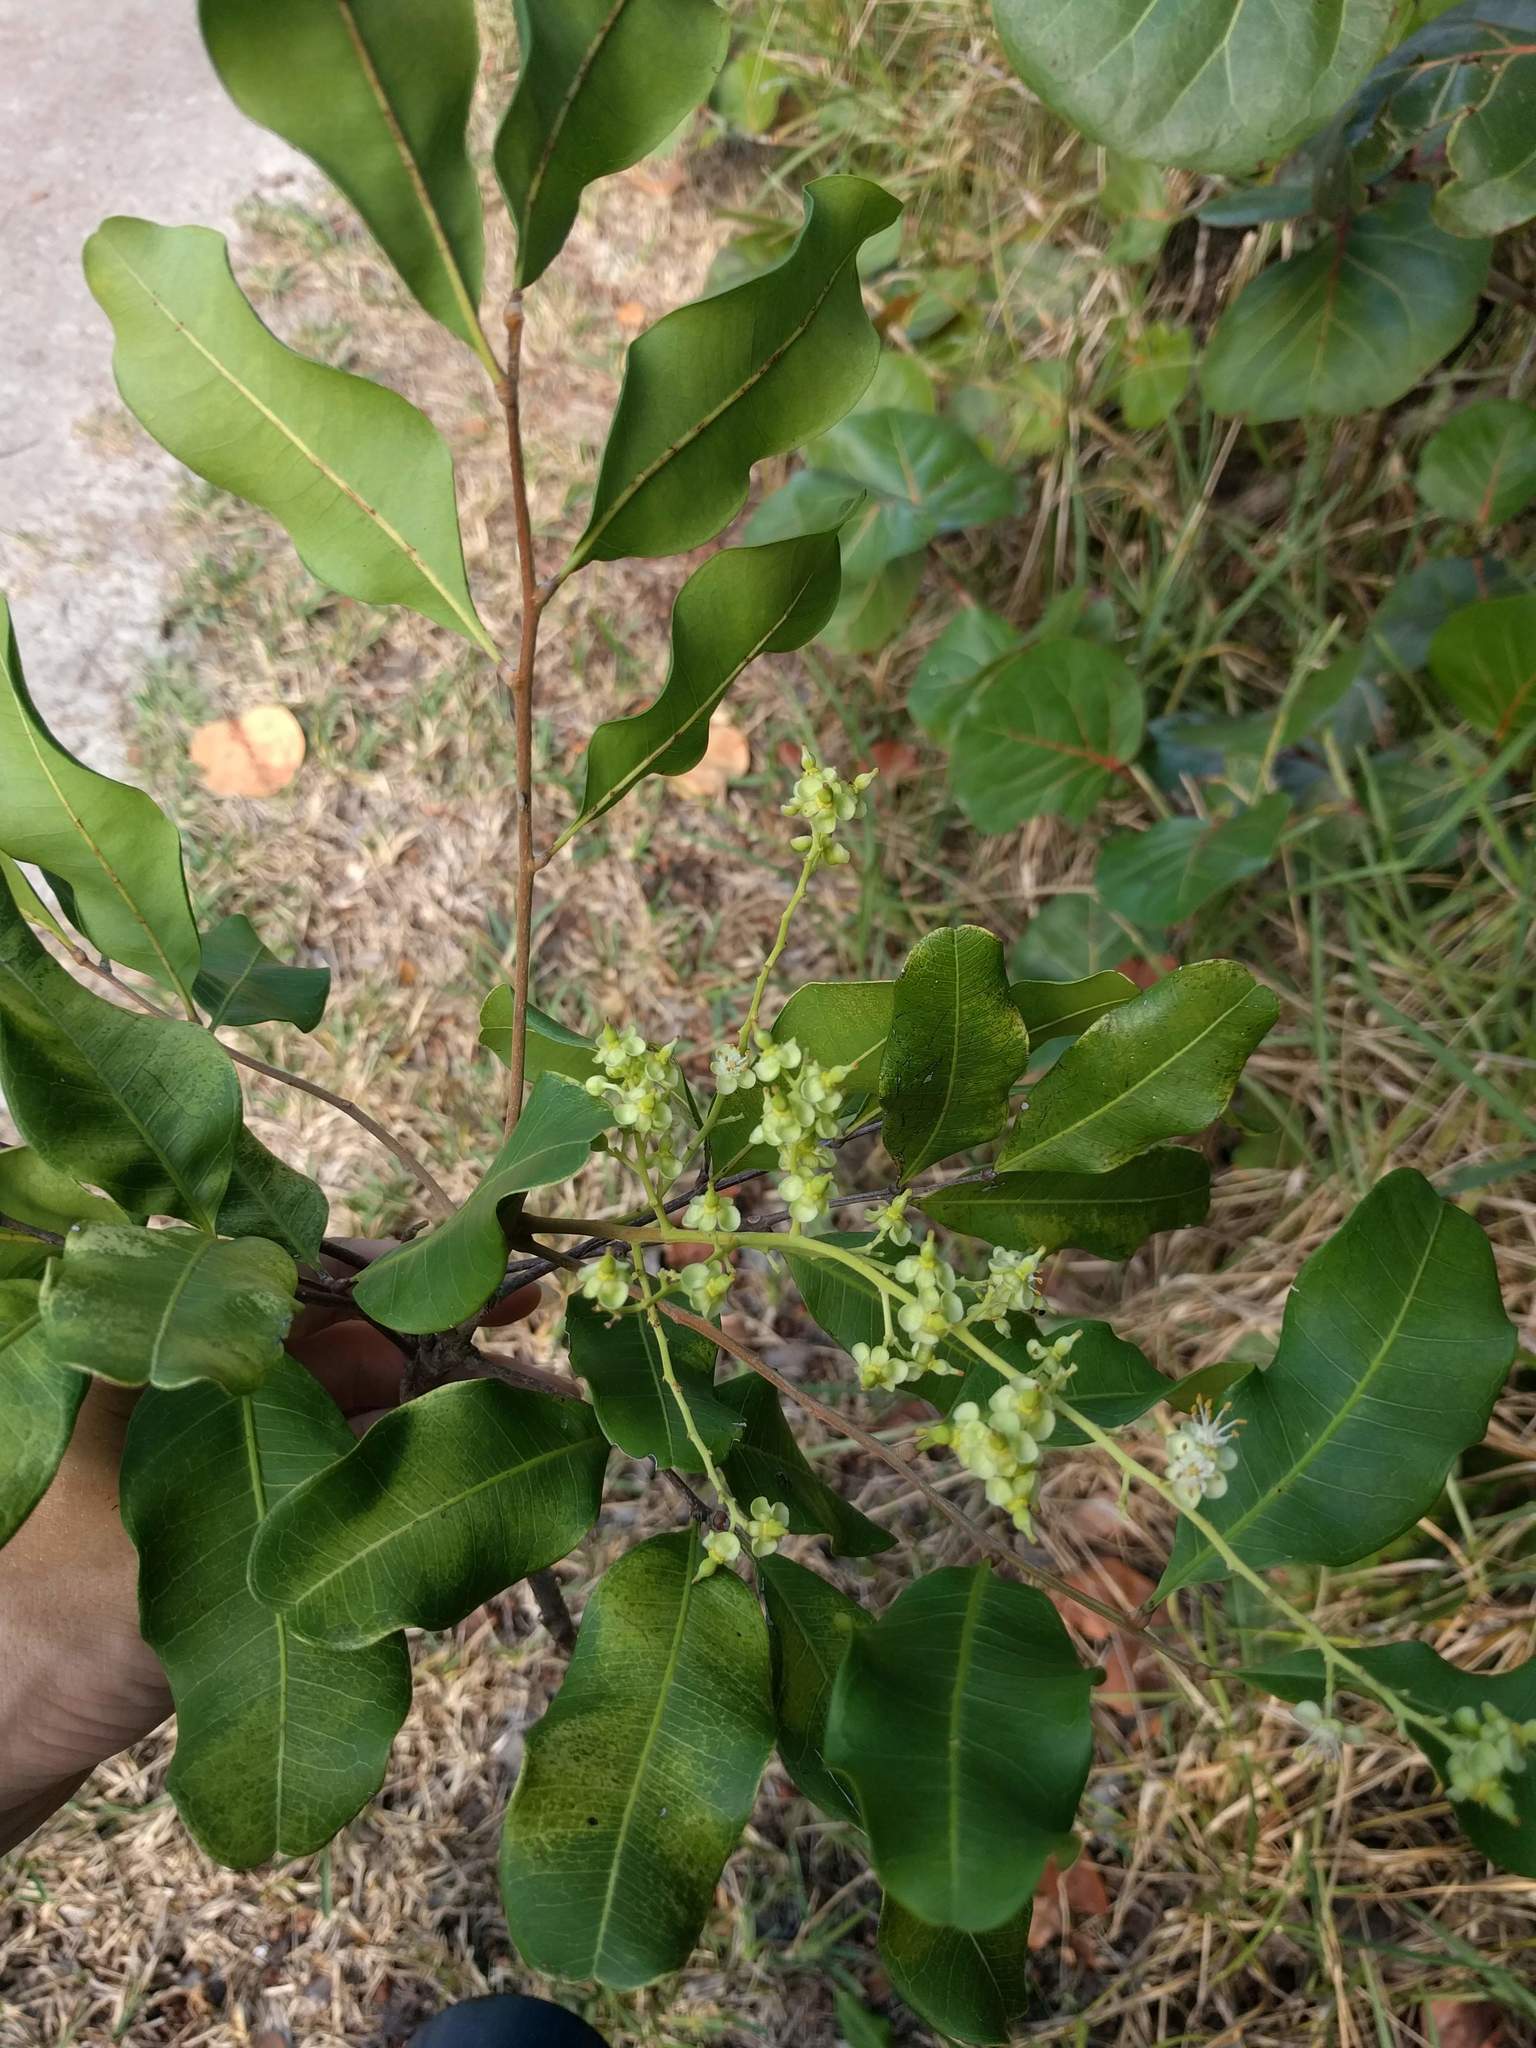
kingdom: Plantae
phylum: Tracheophyta
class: Magnoliopsida
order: Sapindales
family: Sapindaceae
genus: Cupaniopsis
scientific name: Cupaniopsis anacardioides
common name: Carrotwood
